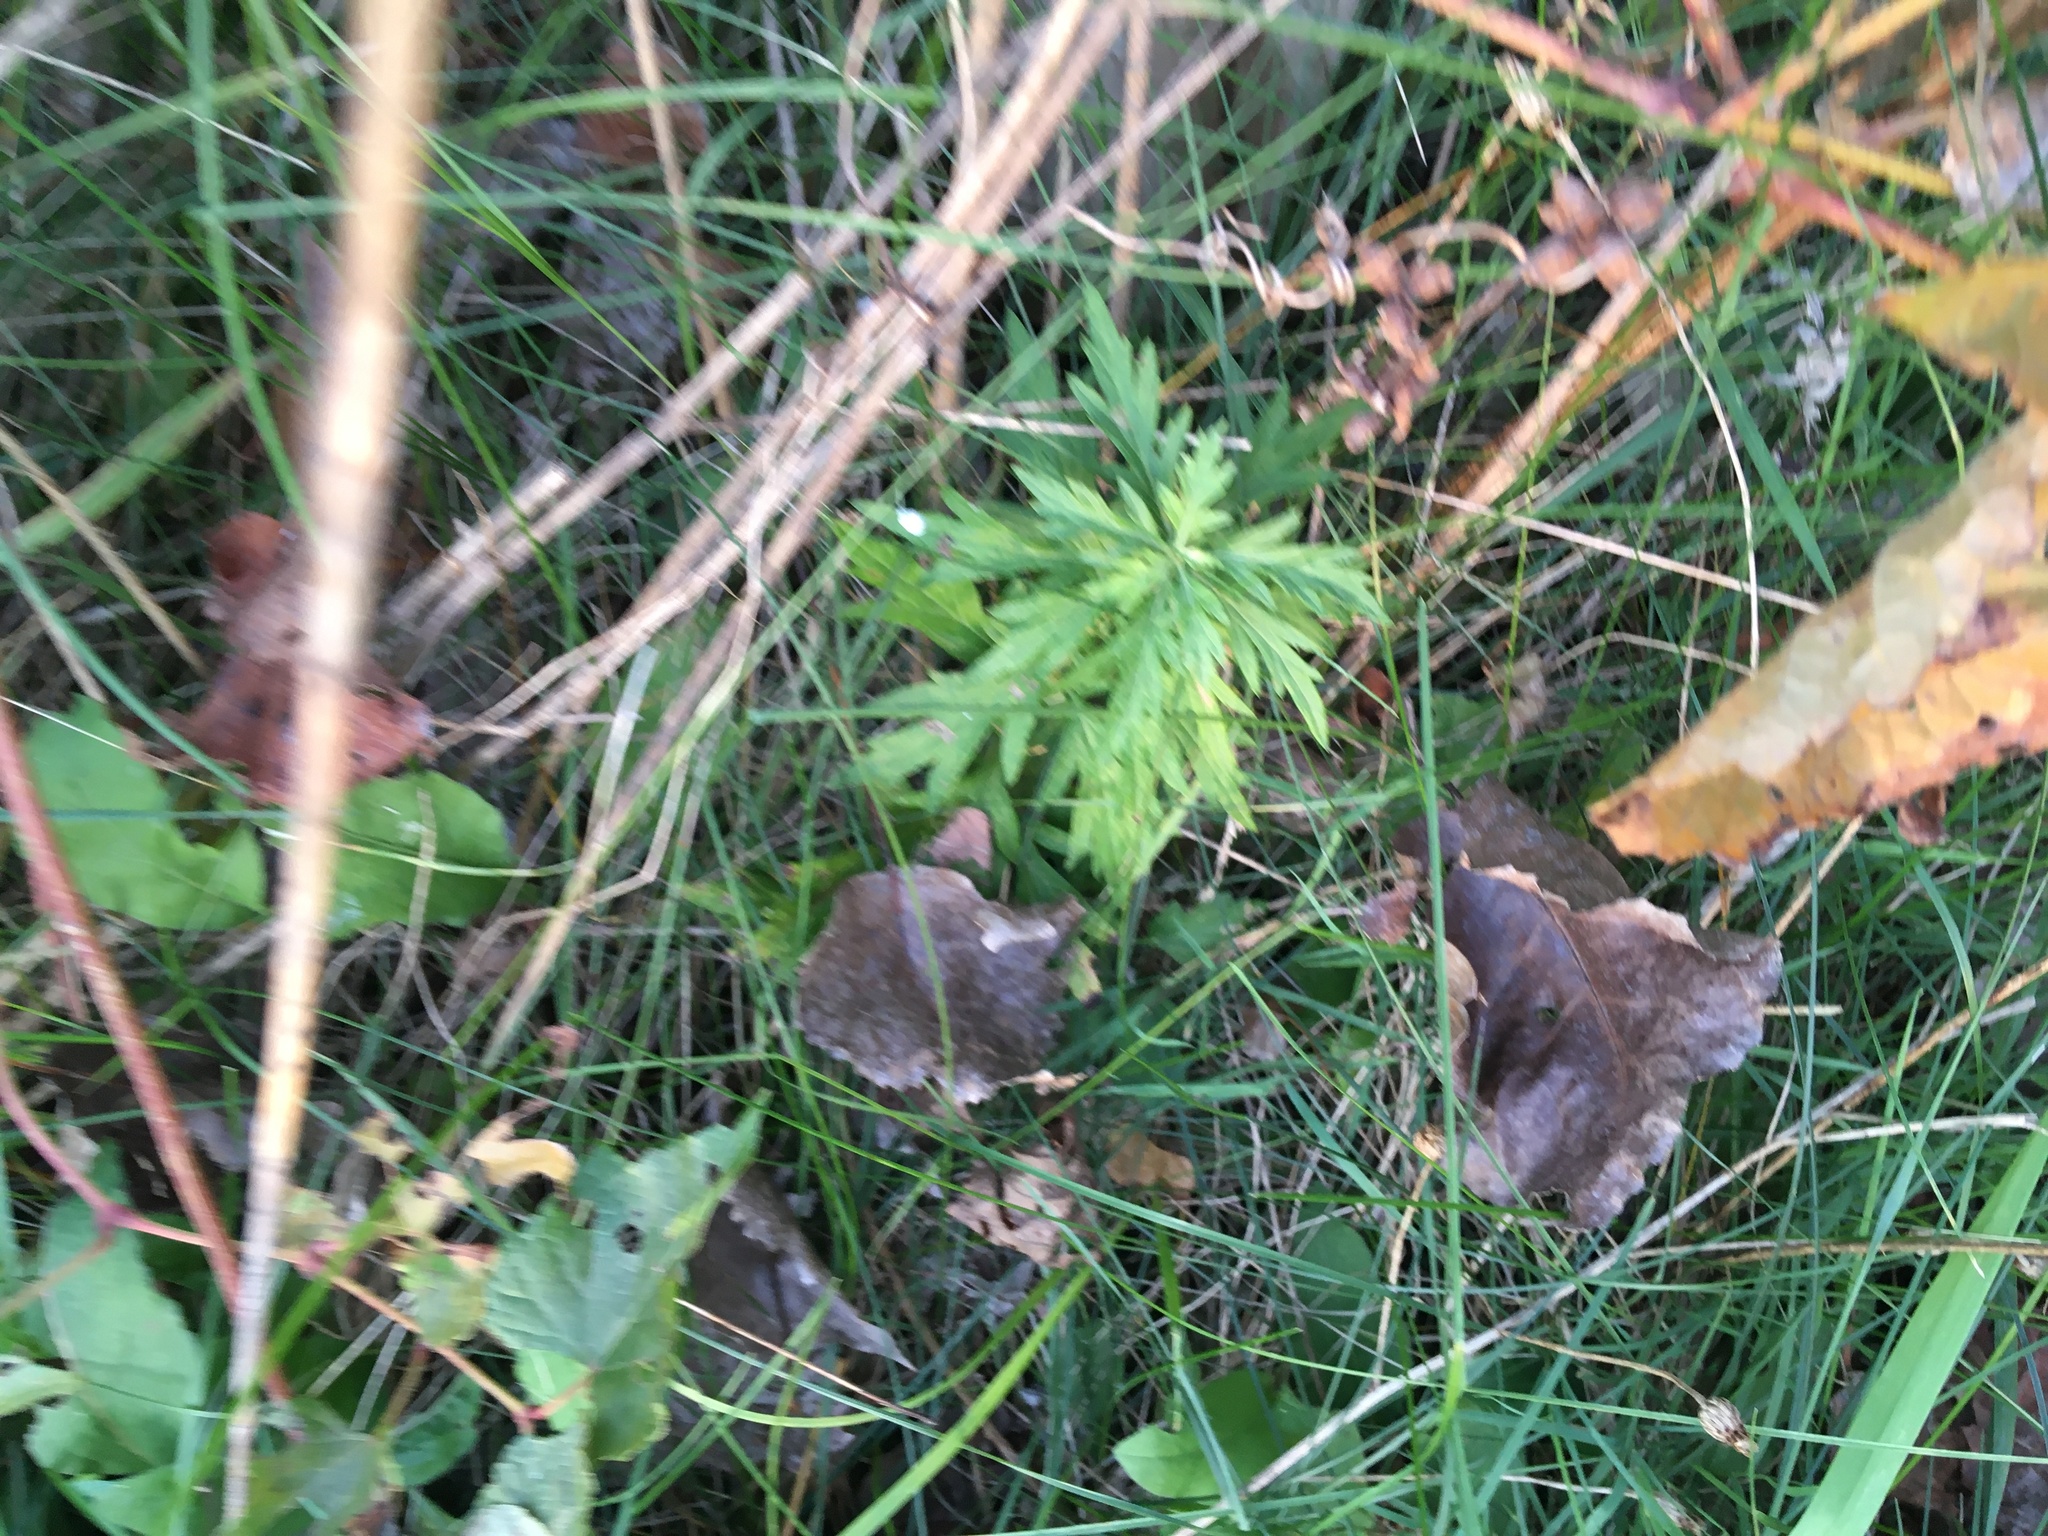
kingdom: Plantae
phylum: Tracheophyta
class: Magnoliopsida
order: Asterales
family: Asteraceae
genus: Artemisia
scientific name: Artemisia vulgaris
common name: Mugwort
